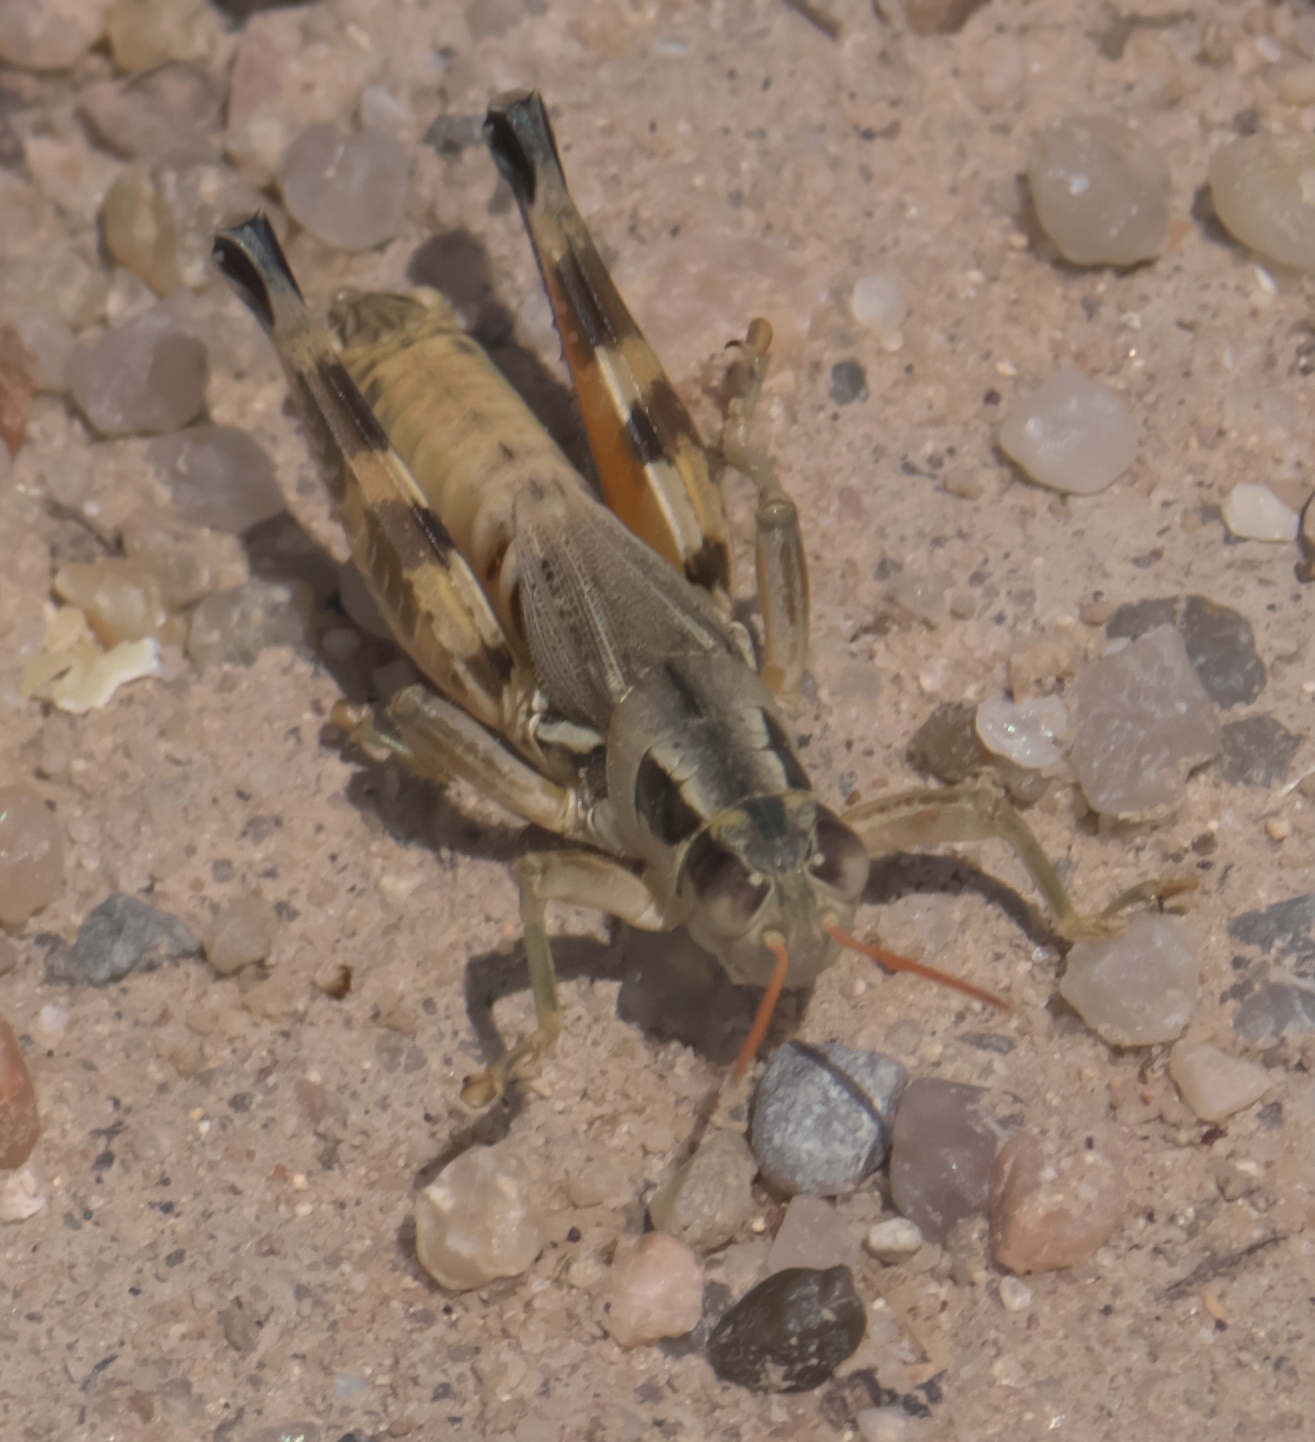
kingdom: Animalia
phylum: Arthropoda
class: Insecta
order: Orthoptera
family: Acrididae
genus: Melanoplus
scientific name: Melanoplus lakinus
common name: Lakin grasshopper
